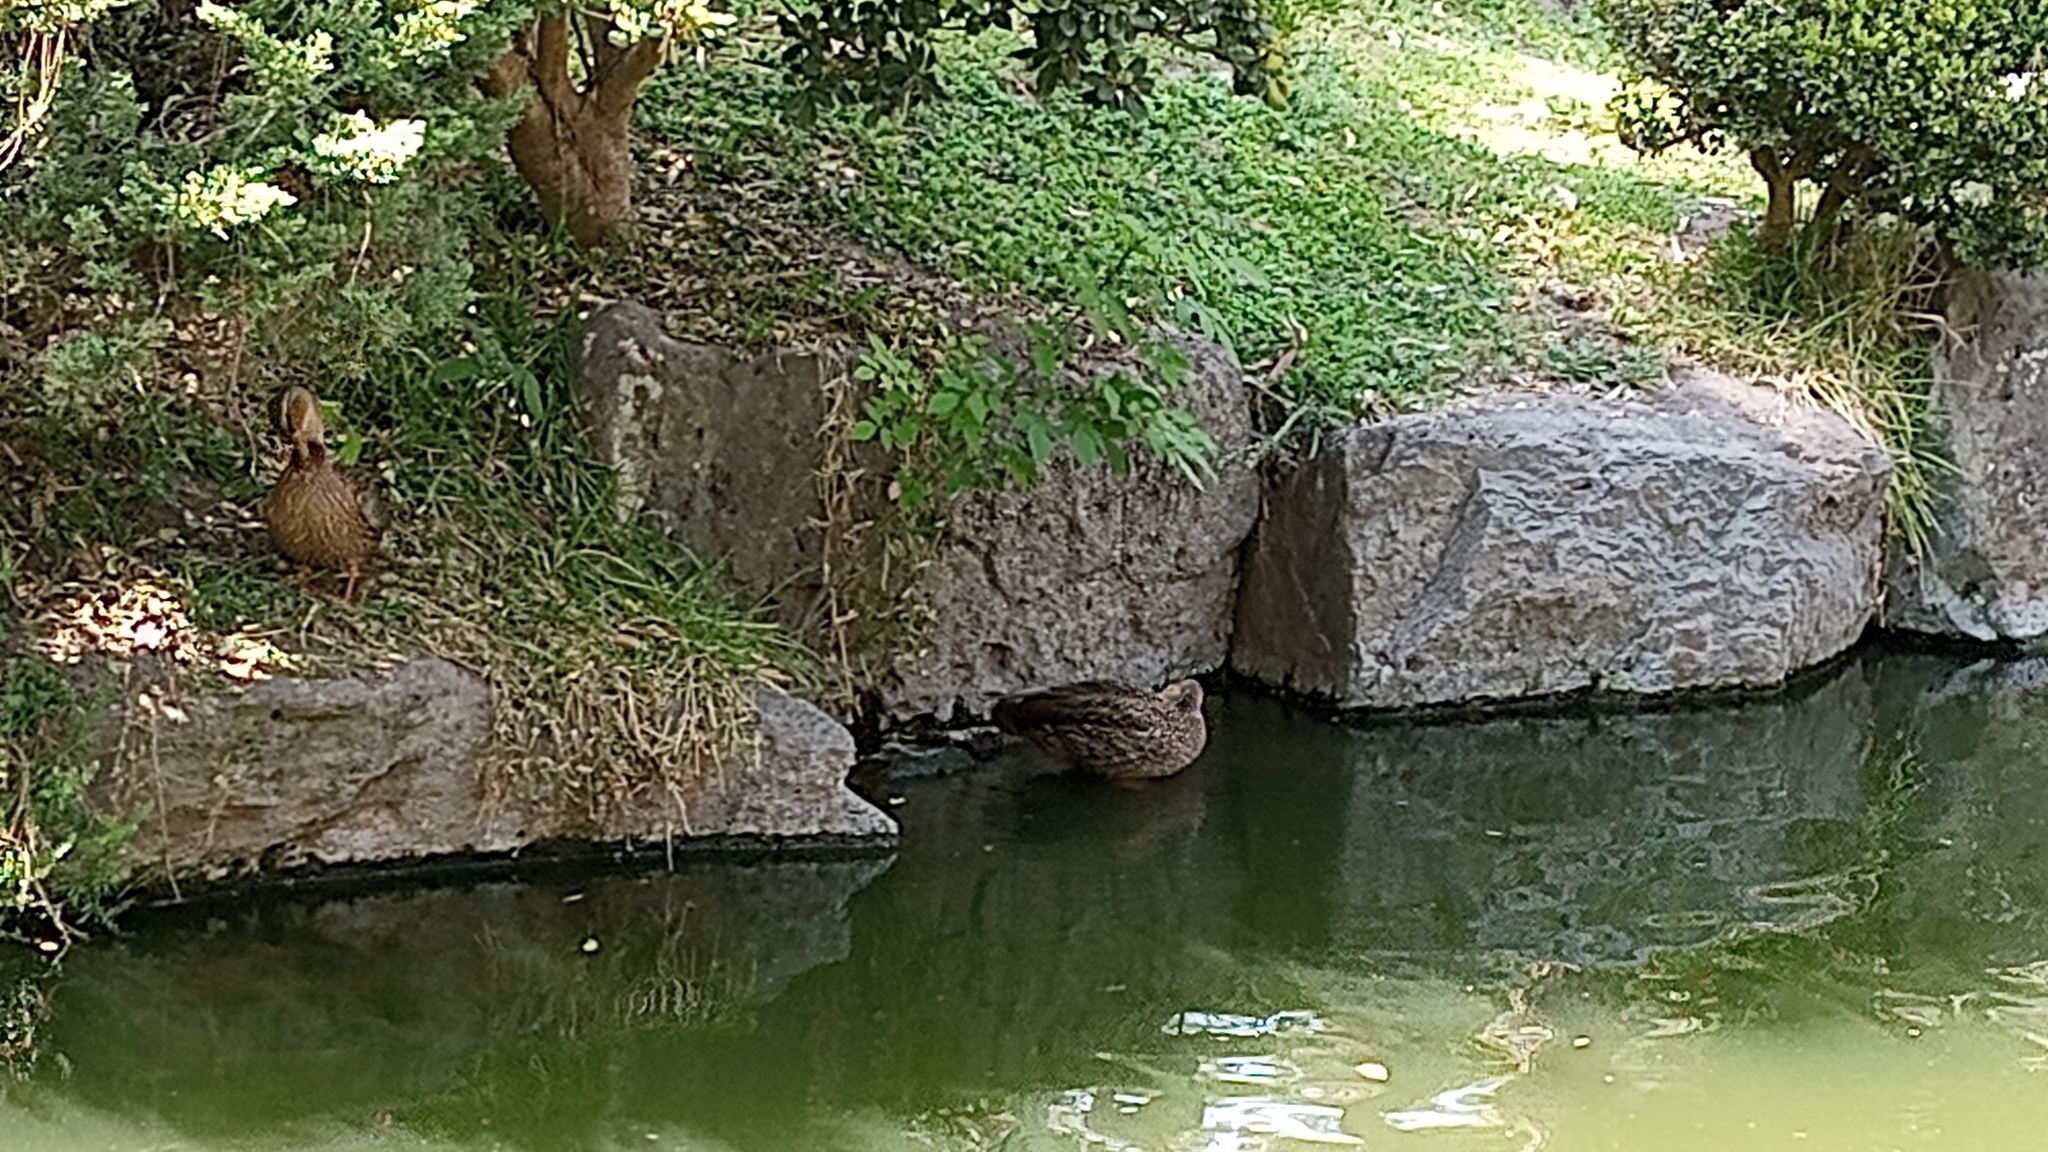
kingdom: Animalia
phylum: Chordata
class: Aves
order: Anseriformes
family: Anatidae
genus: Anas
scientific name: Anas diazi
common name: Mexican duck
